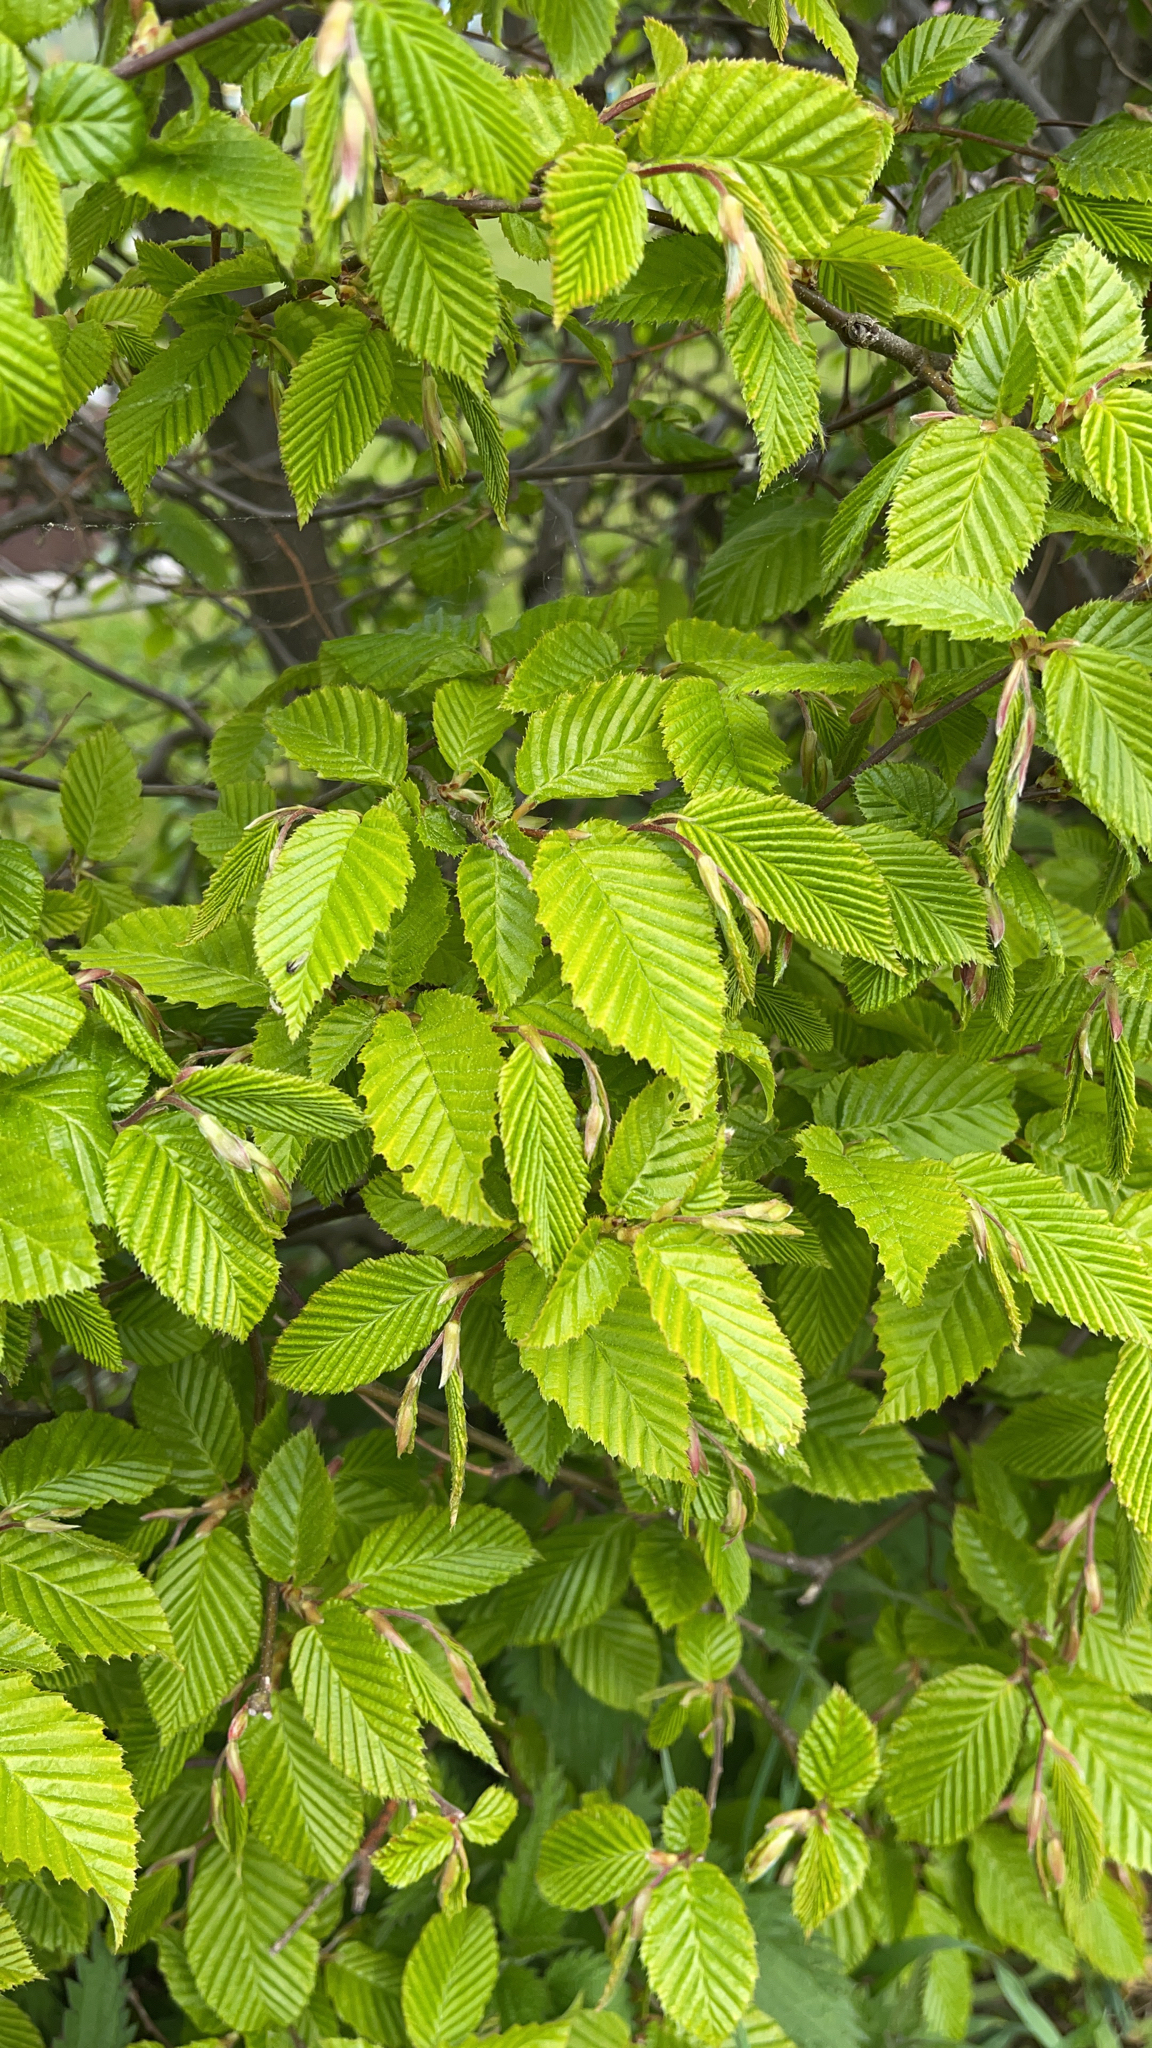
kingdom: Plantae
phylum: Tracheophyta
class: Magnoliopsida
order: Fagales
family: Betulaceae
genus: Carpinus
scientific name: Carpinus betulus
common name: Hornbeam
